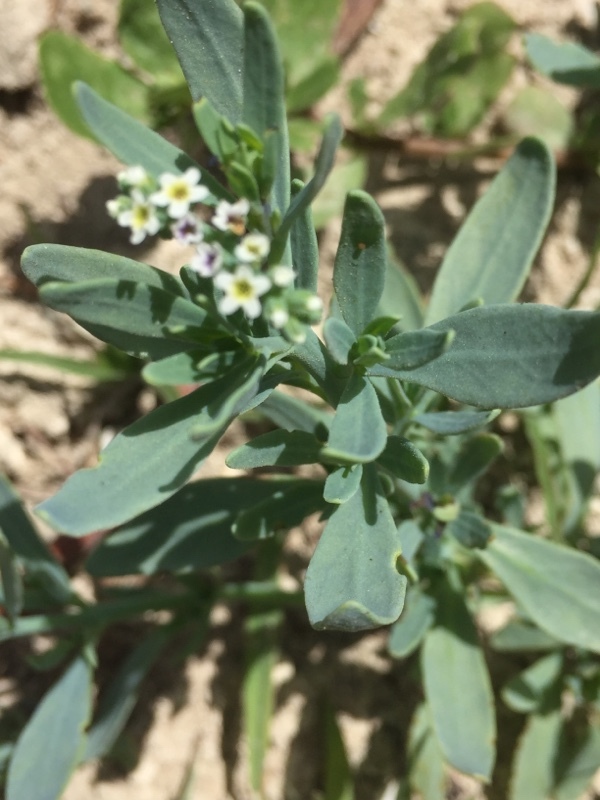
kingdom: Plantae
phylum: Tracheophyta
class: Magnoliopsida
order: Boraginales
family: Heliotropiaceae
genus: Heliotropium
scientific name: Heliotropium curassavicum
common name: Seaside heliotrope
